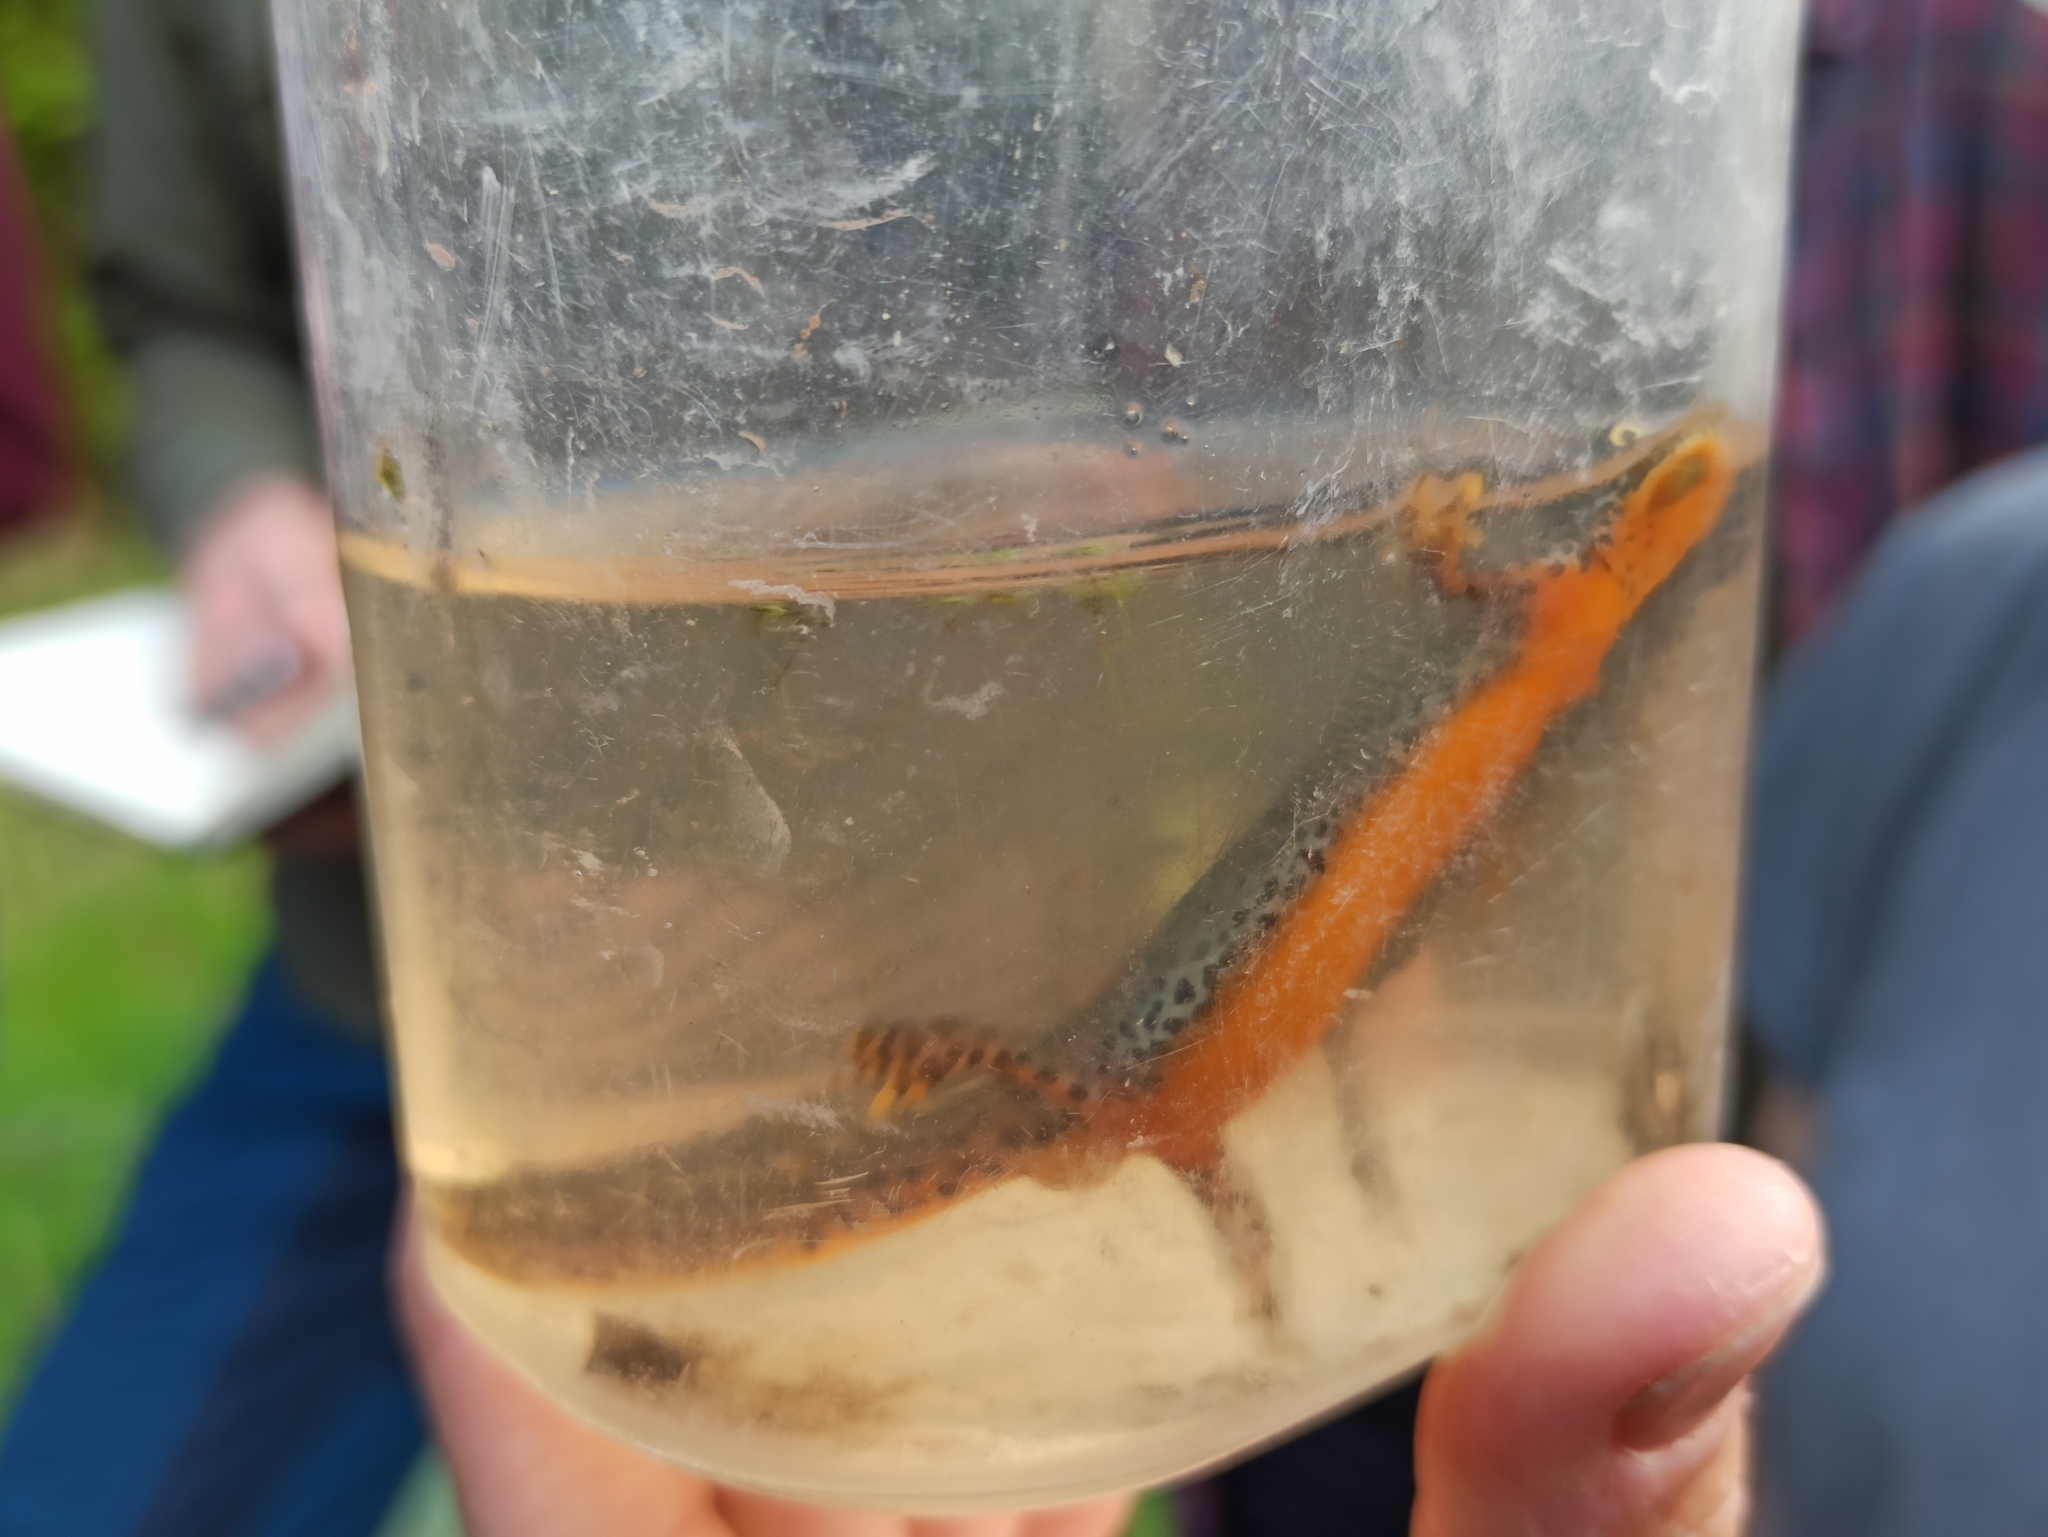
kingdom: Animalia
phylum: Chordata
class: Amphibia
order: Caudata
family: Salamandridae
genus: Ichthyosaura
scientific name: Ichthyosaura alpestris
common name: Alpine newt
